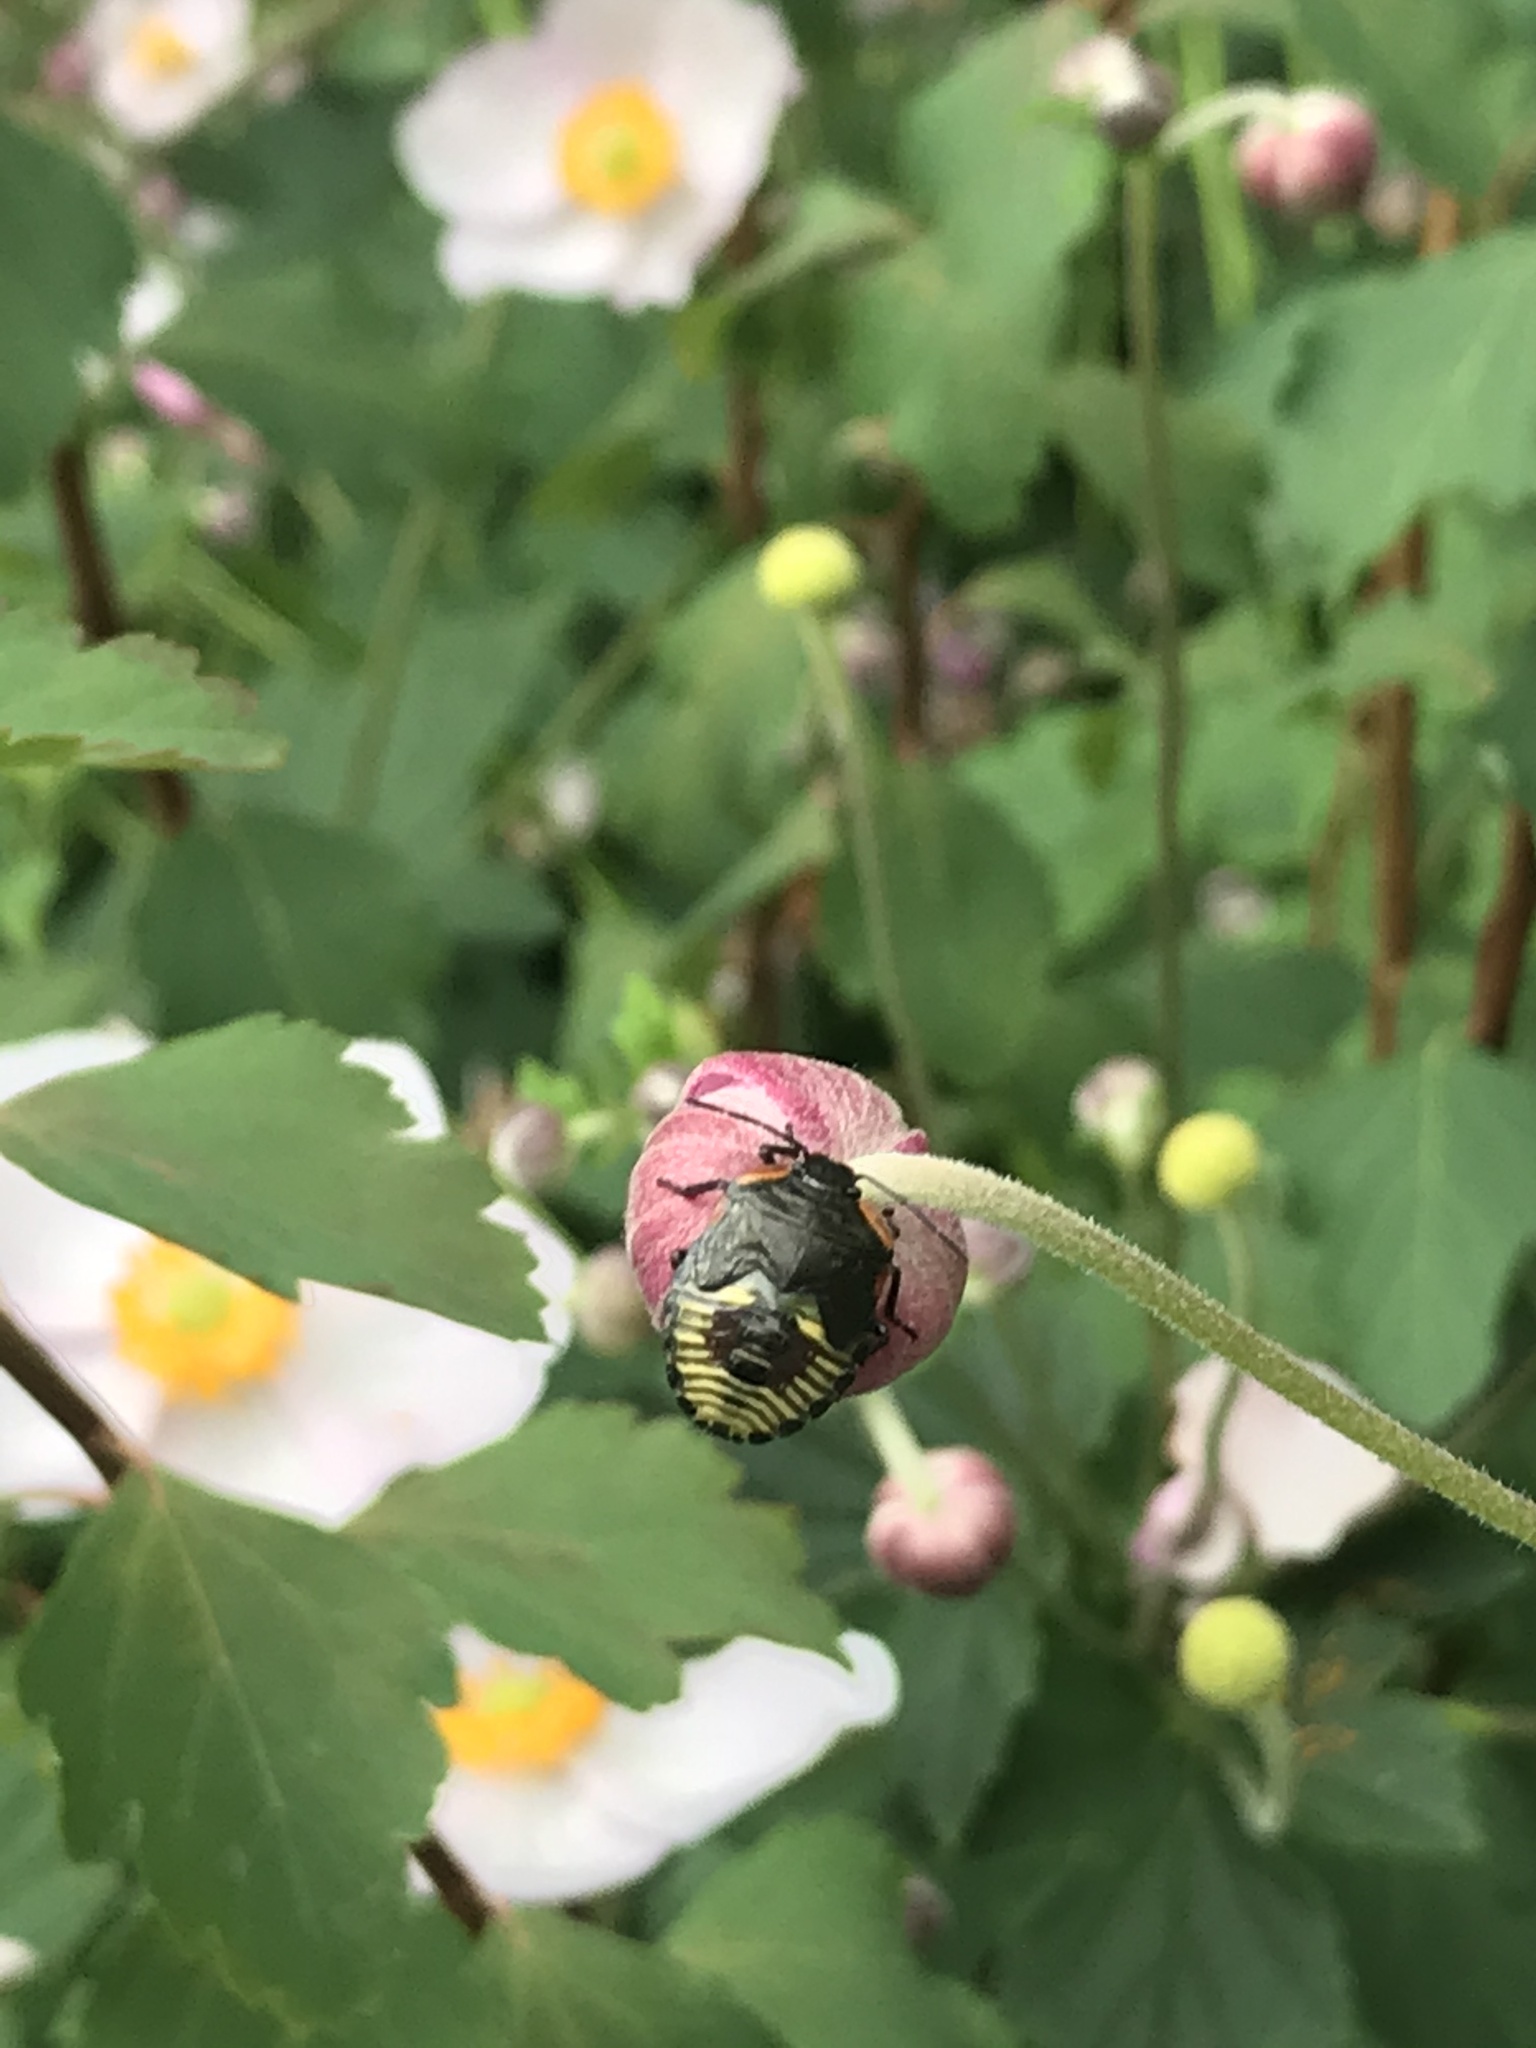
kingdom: Animalia
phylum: Arthropoda
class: Insecta
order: Hemiptera
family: Pentatomidae
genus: Chinavia
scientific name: Chinavia hilaris
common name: Green stink bug
